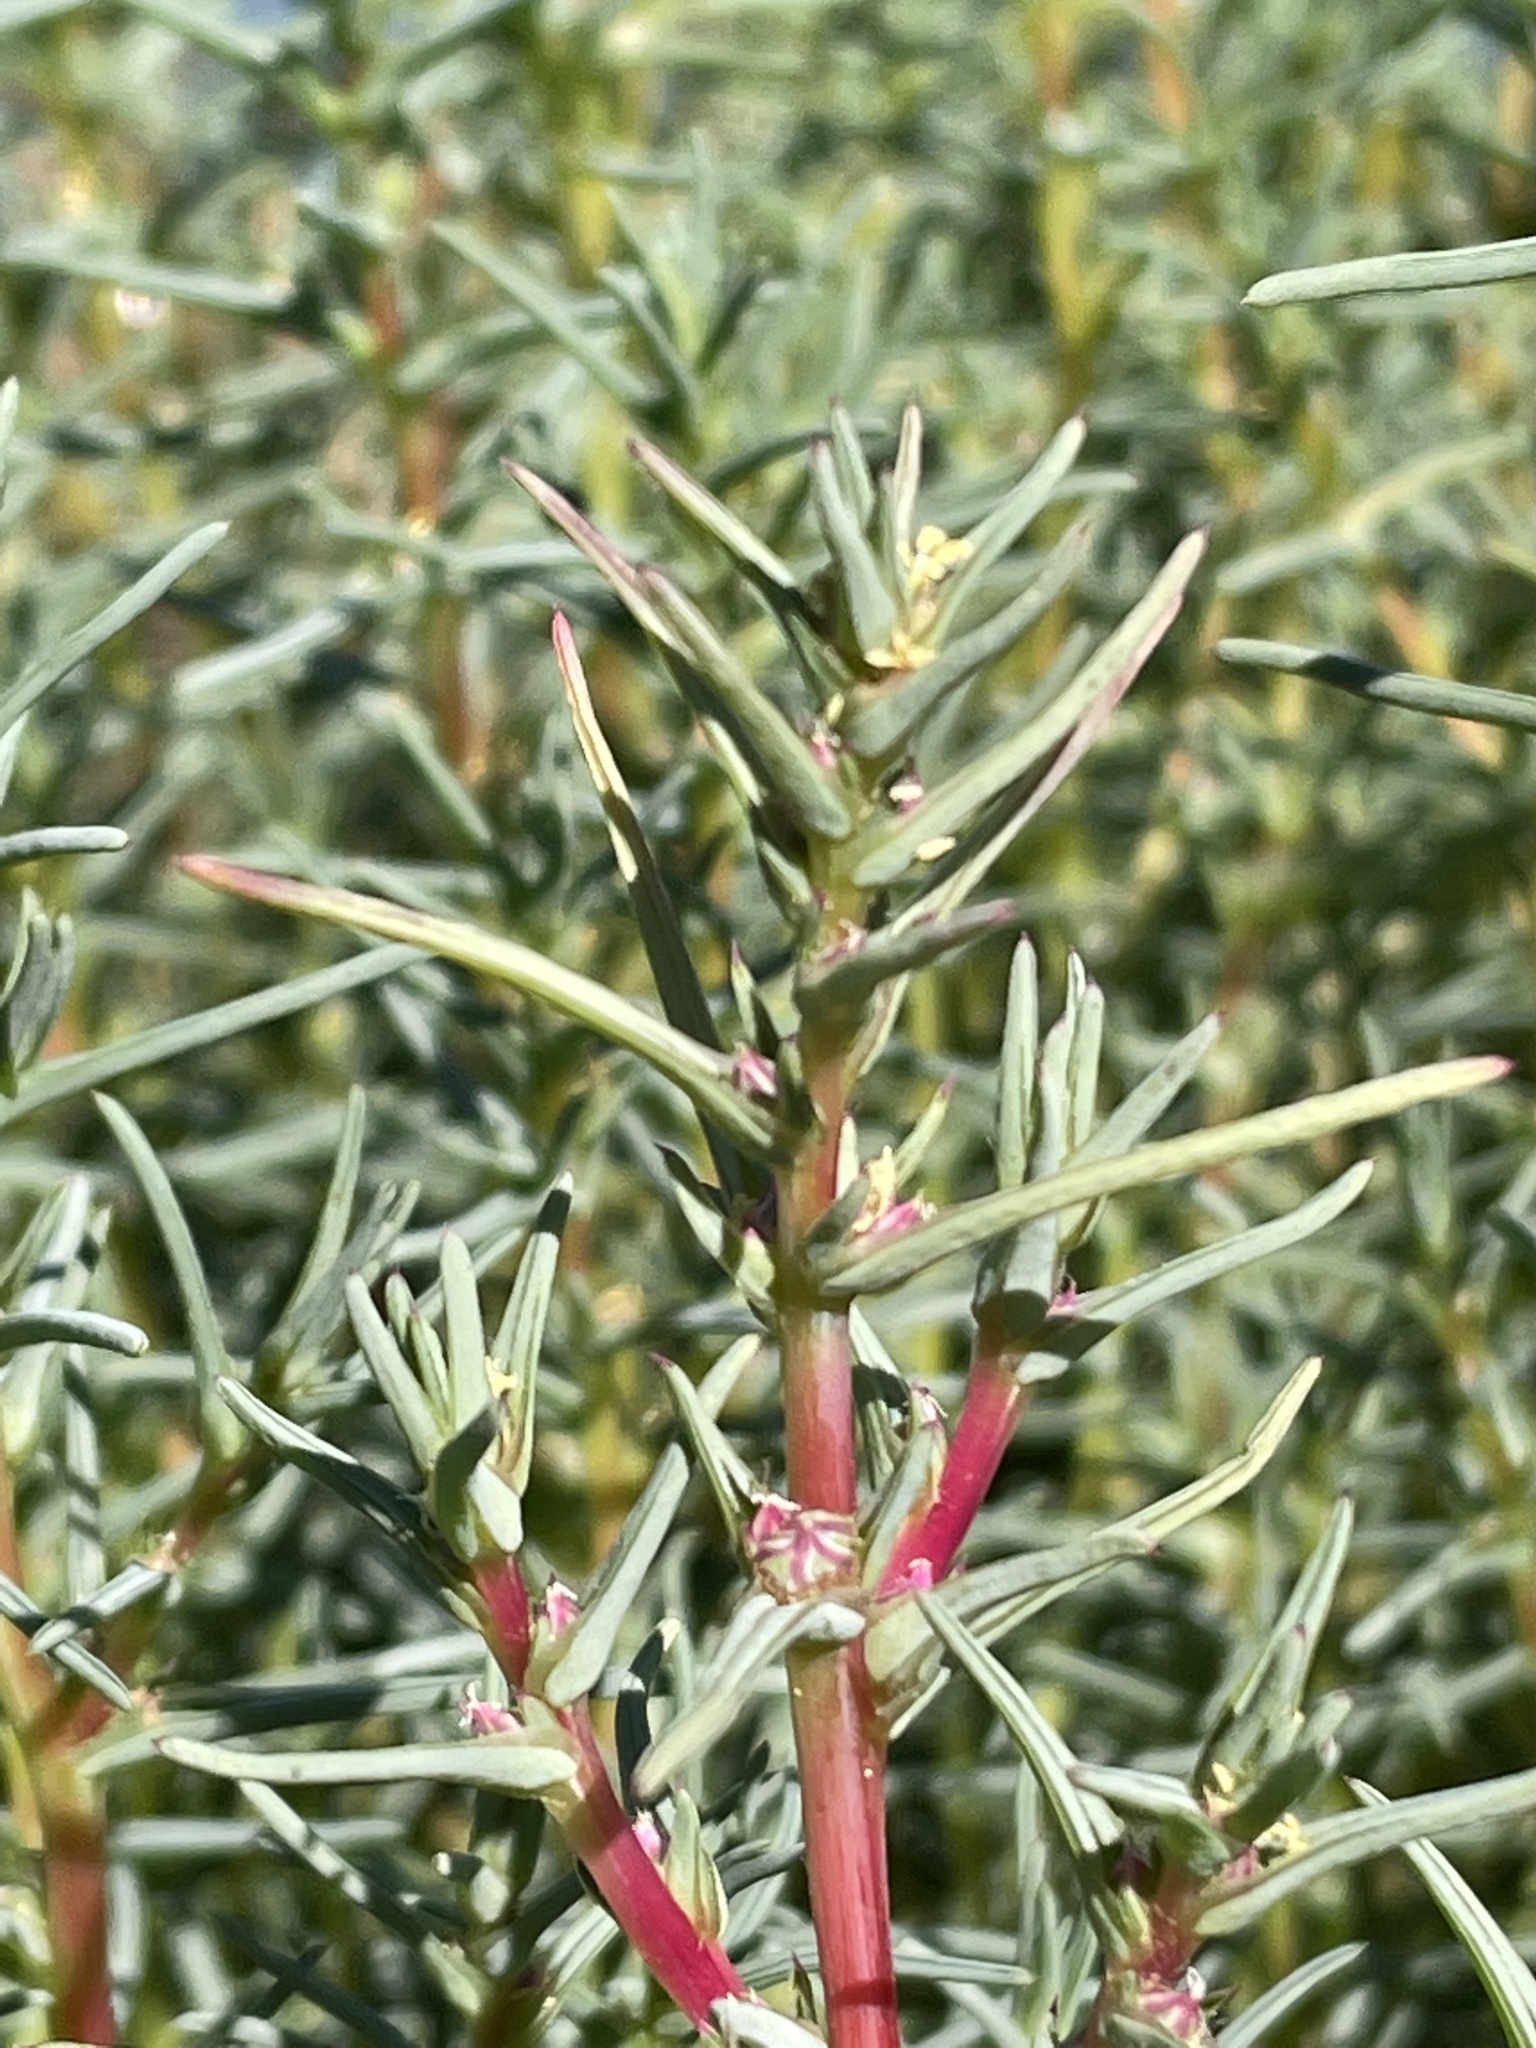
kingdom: Plantae
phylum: Tracheophyta
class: Magnoliopsida
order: Caryophyllales
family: Amaranthaceae
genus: Salsola
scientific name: Salsola soda
